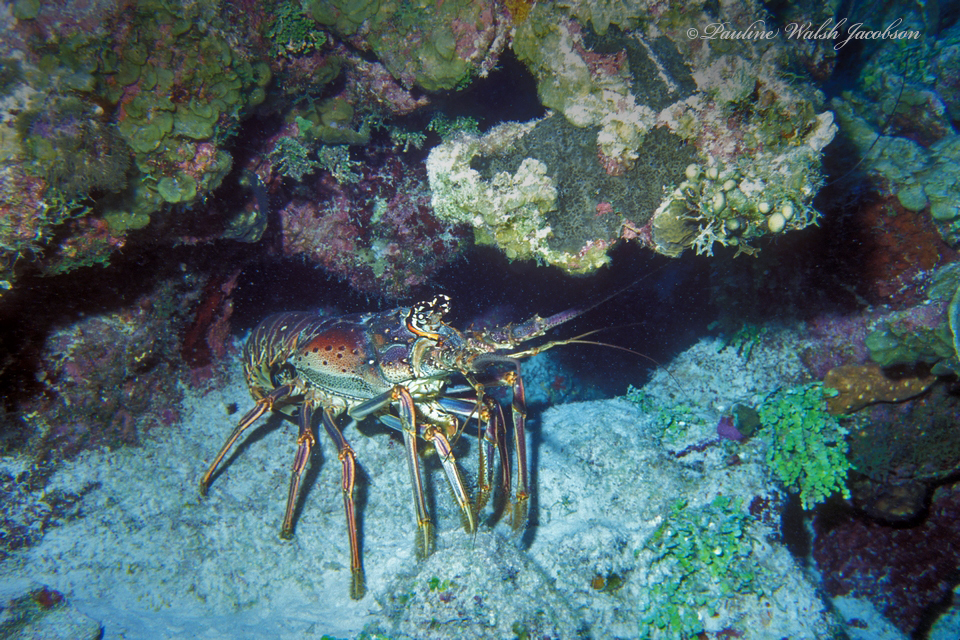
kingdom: Animalia
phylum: Arthropoda
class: Malacostraca
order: Decapoda
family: Palinuridae
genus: Panulirus
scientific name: Panulirus argus
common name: Caribbean spiny lobster
